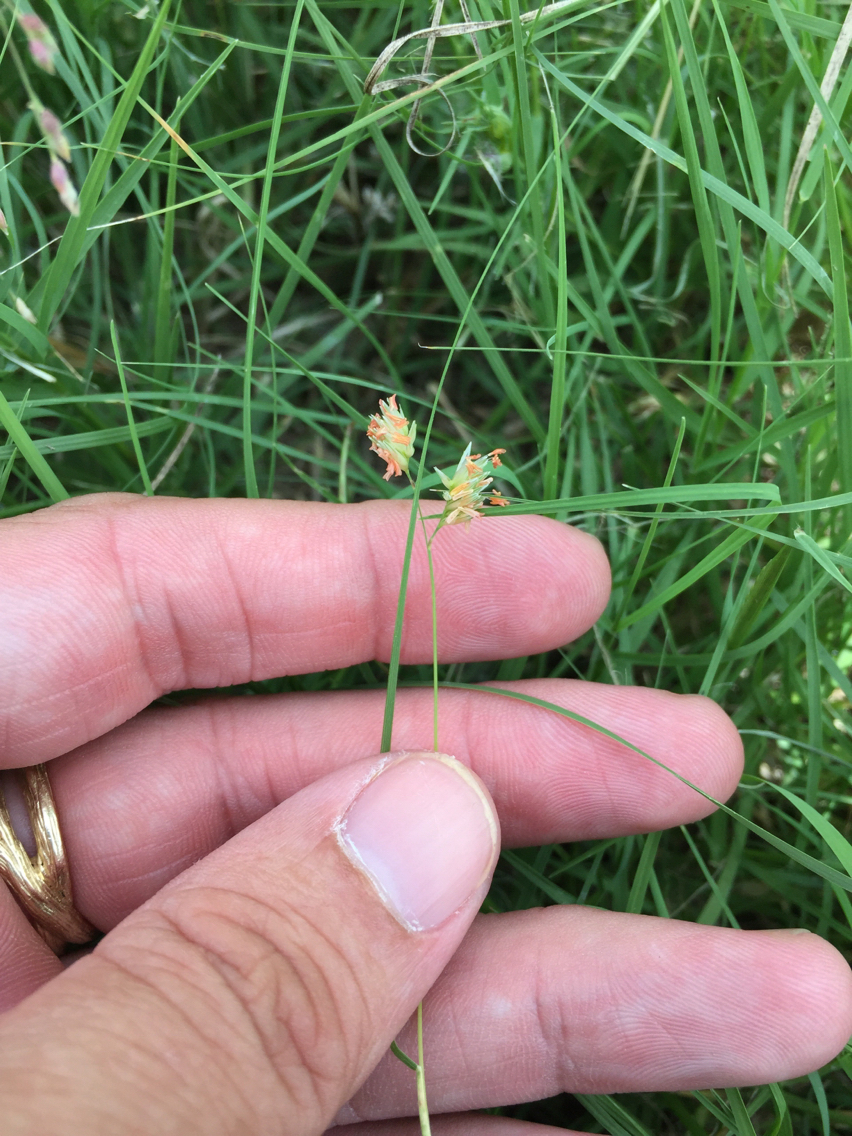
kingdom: Plantae
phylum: Tracheophyta
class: Liliopsida
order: Poales
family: Poaceae
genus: Bouteloua
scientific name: Bouteloua dactyloides
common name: Buffalo grass
